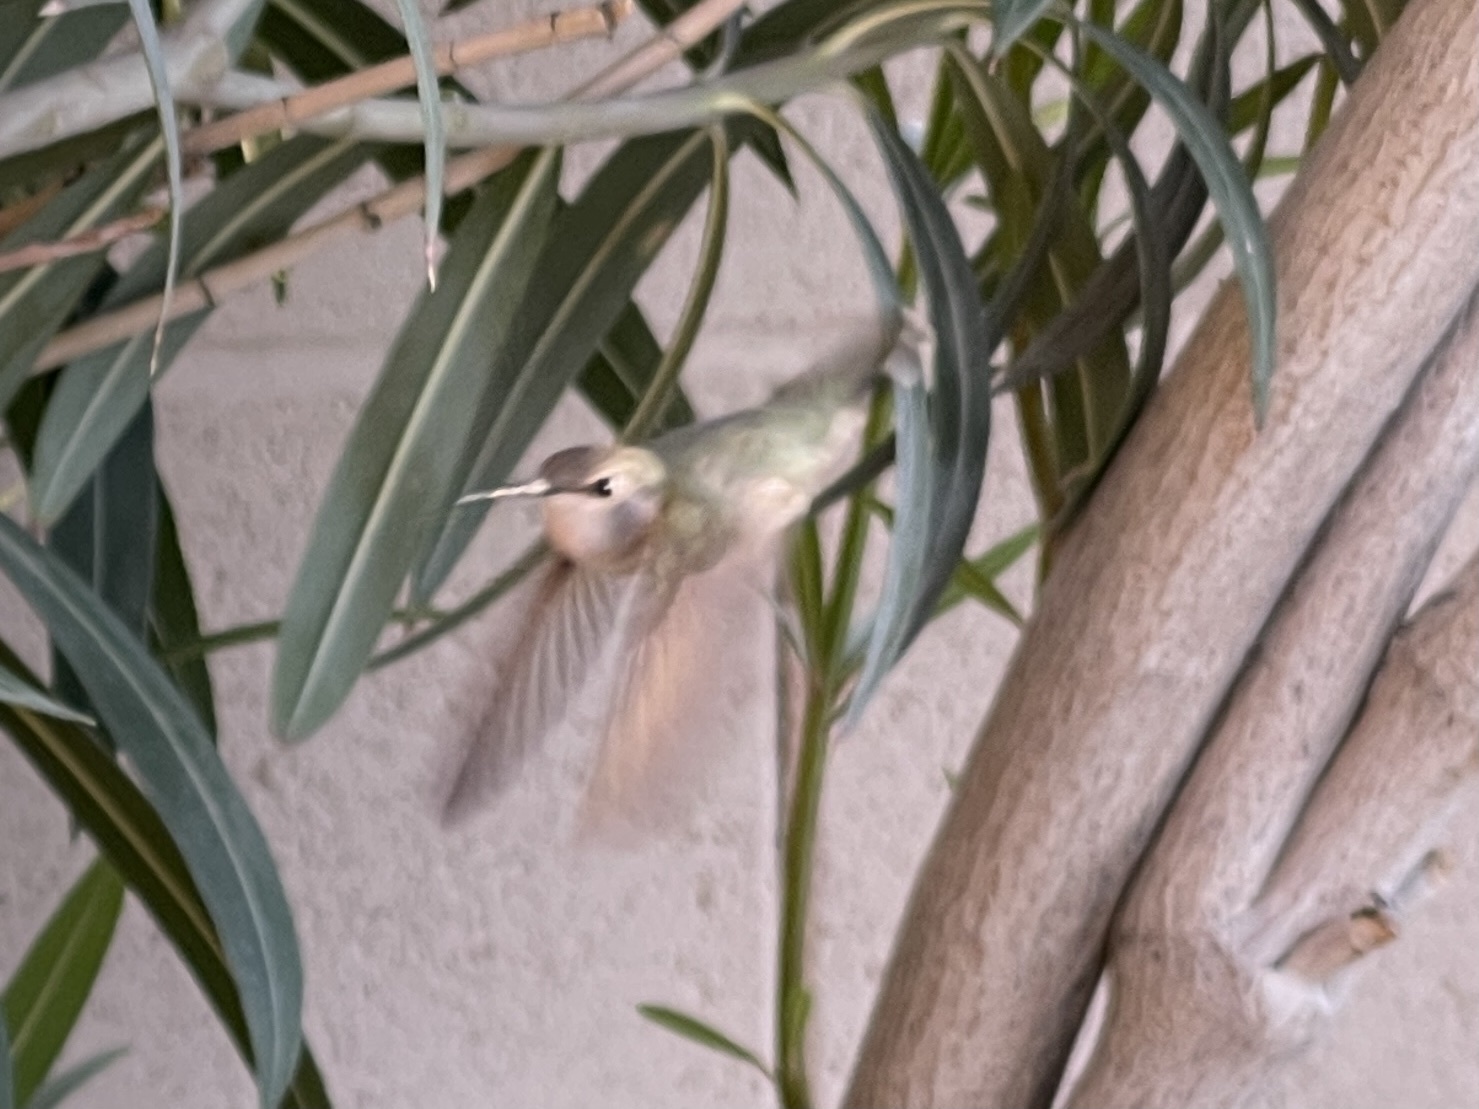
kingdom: Animalia
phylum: Chordata
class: Aves
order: Apodiformes
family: Trochilidae
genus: Calypte
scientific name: Calypte costae
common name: Costa's hummingbird
